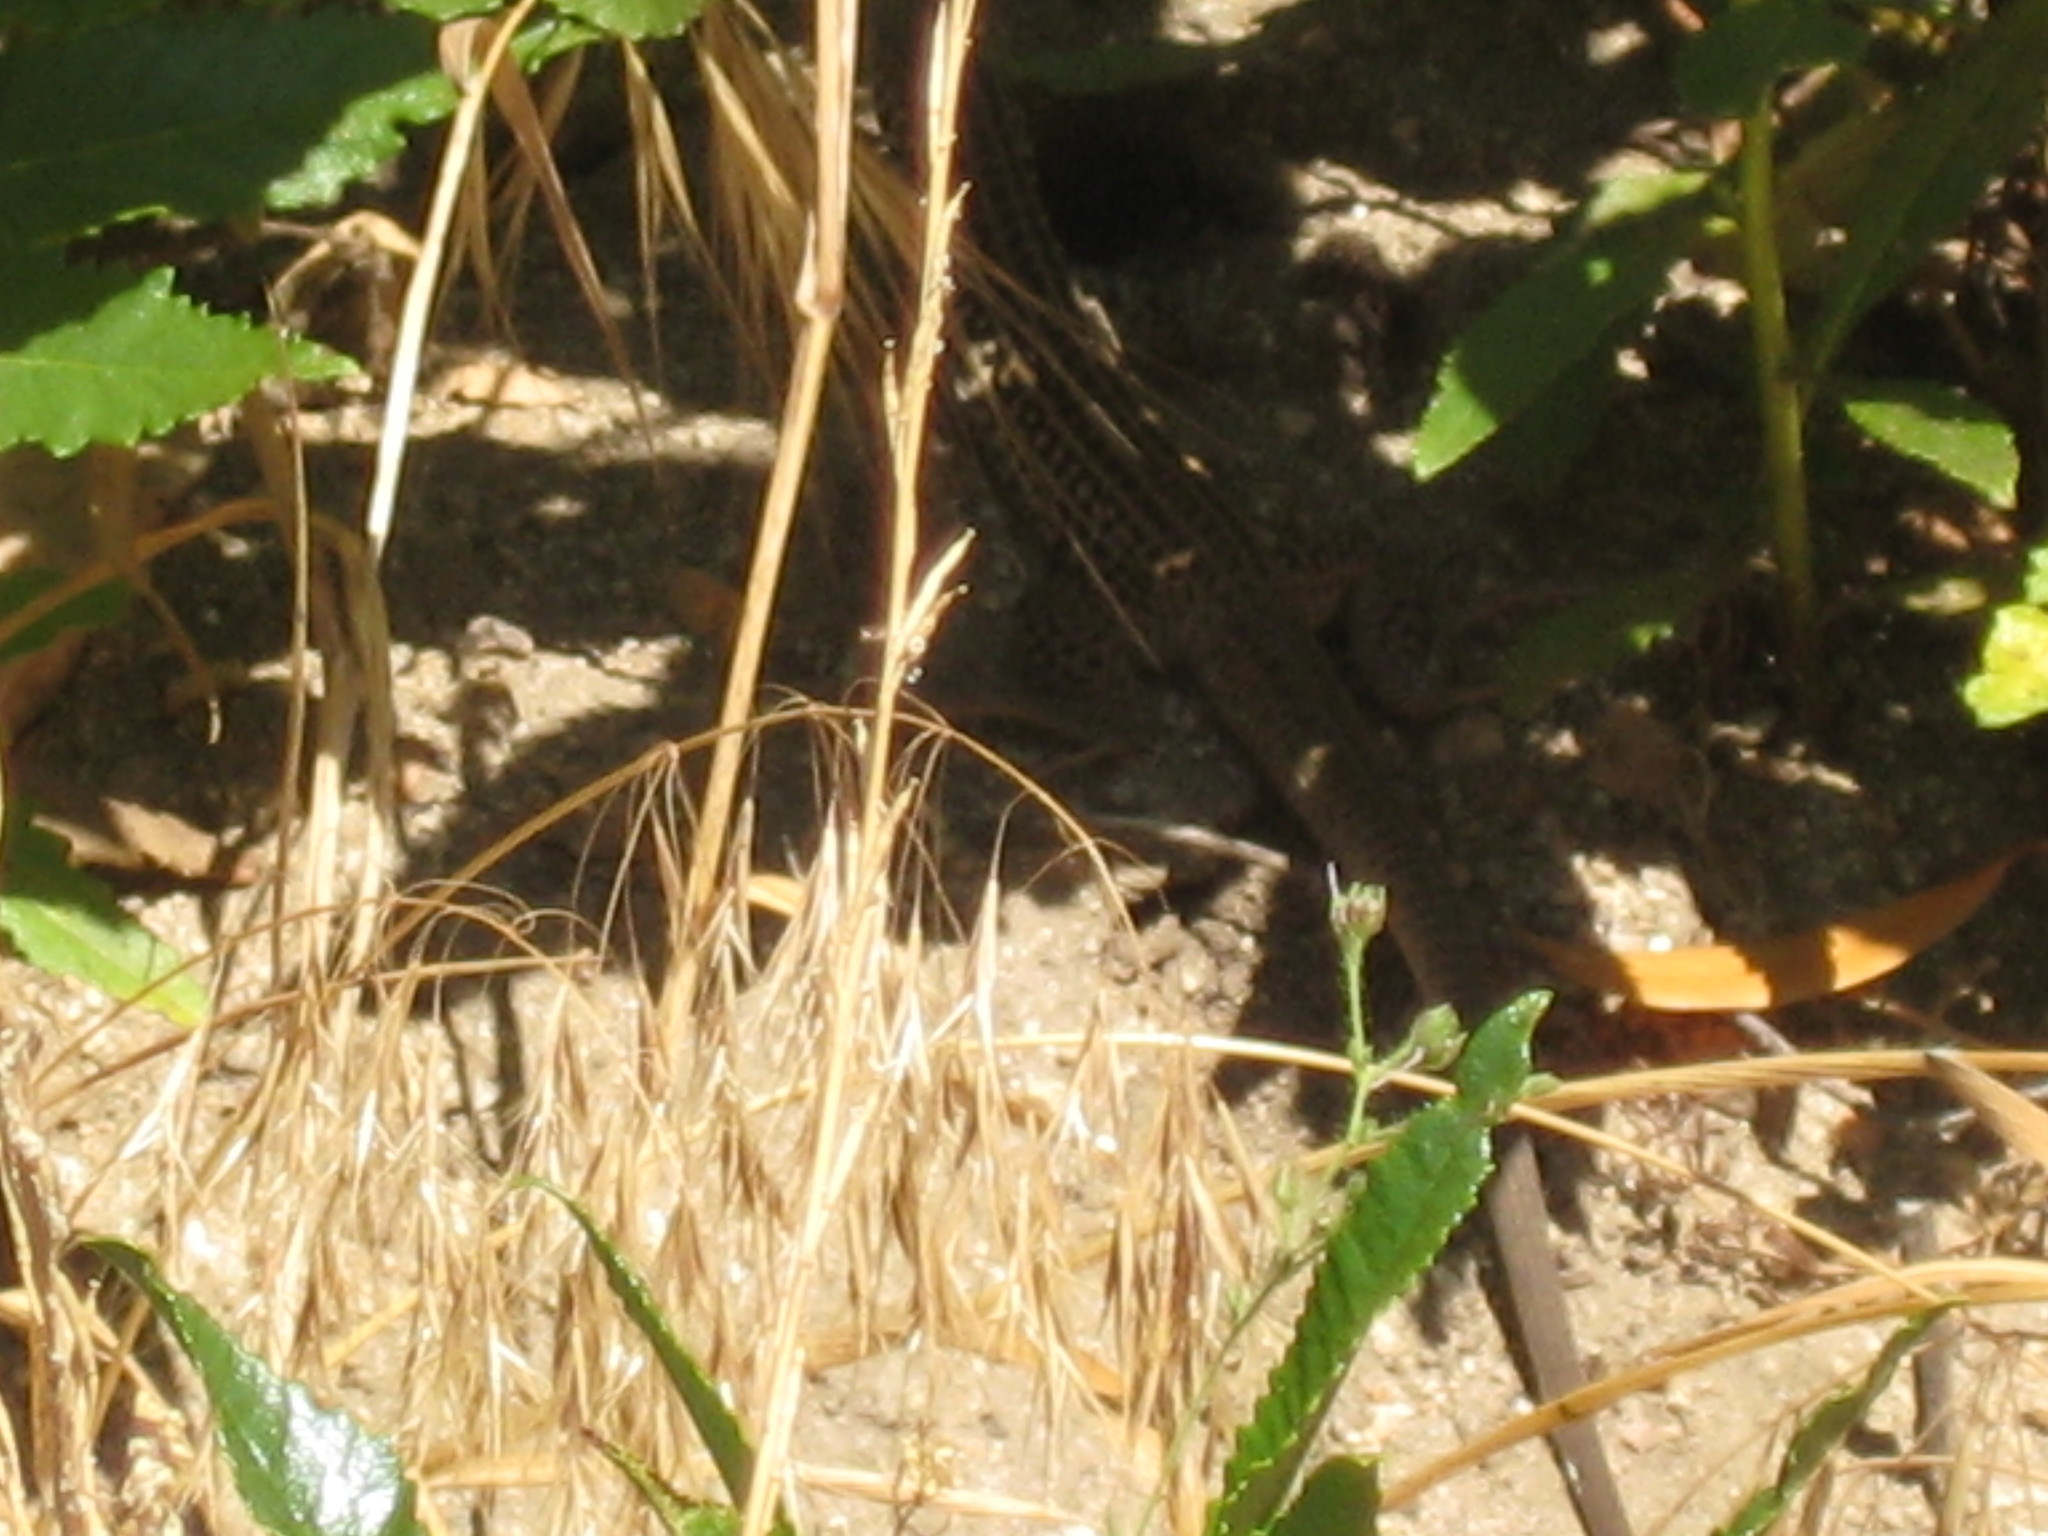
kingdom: Animalia
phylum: Chordata
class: Squamata
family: Teiidae
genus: Aspidoscelis
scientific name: Aspidoscelis tigris
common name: Tiger whiptail
